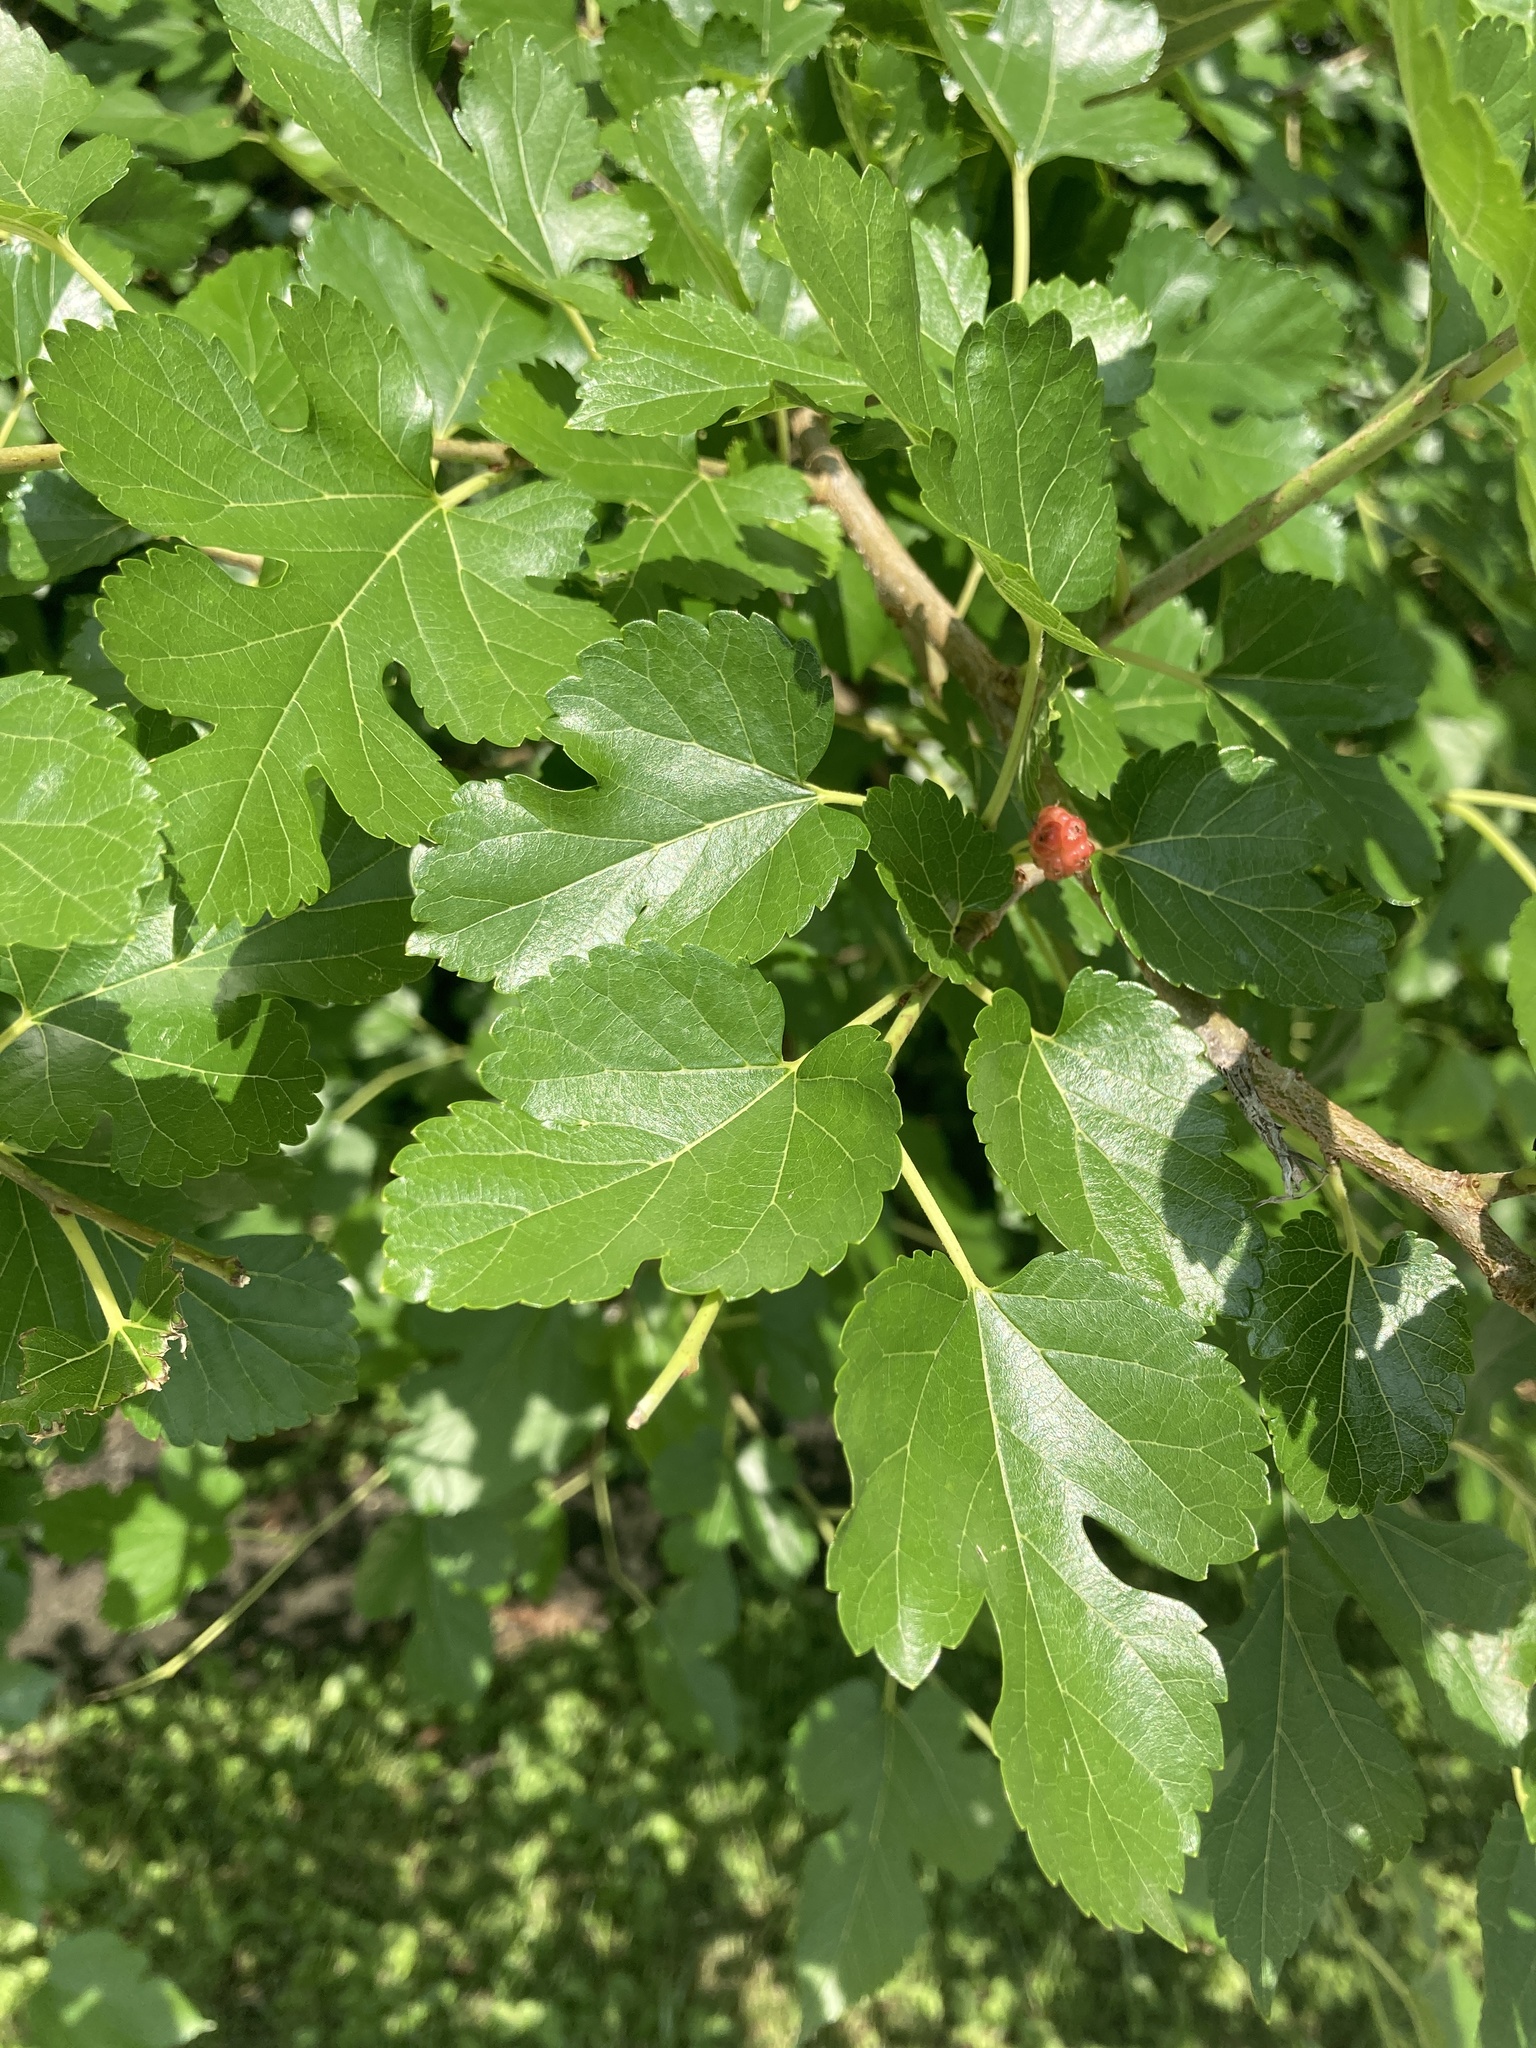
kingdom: Plantae
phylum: Tracheophyta
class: Magnoliopsida
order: Rosales
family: Moraceae
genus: Morus
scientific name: Morus alba
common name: White mulberry
